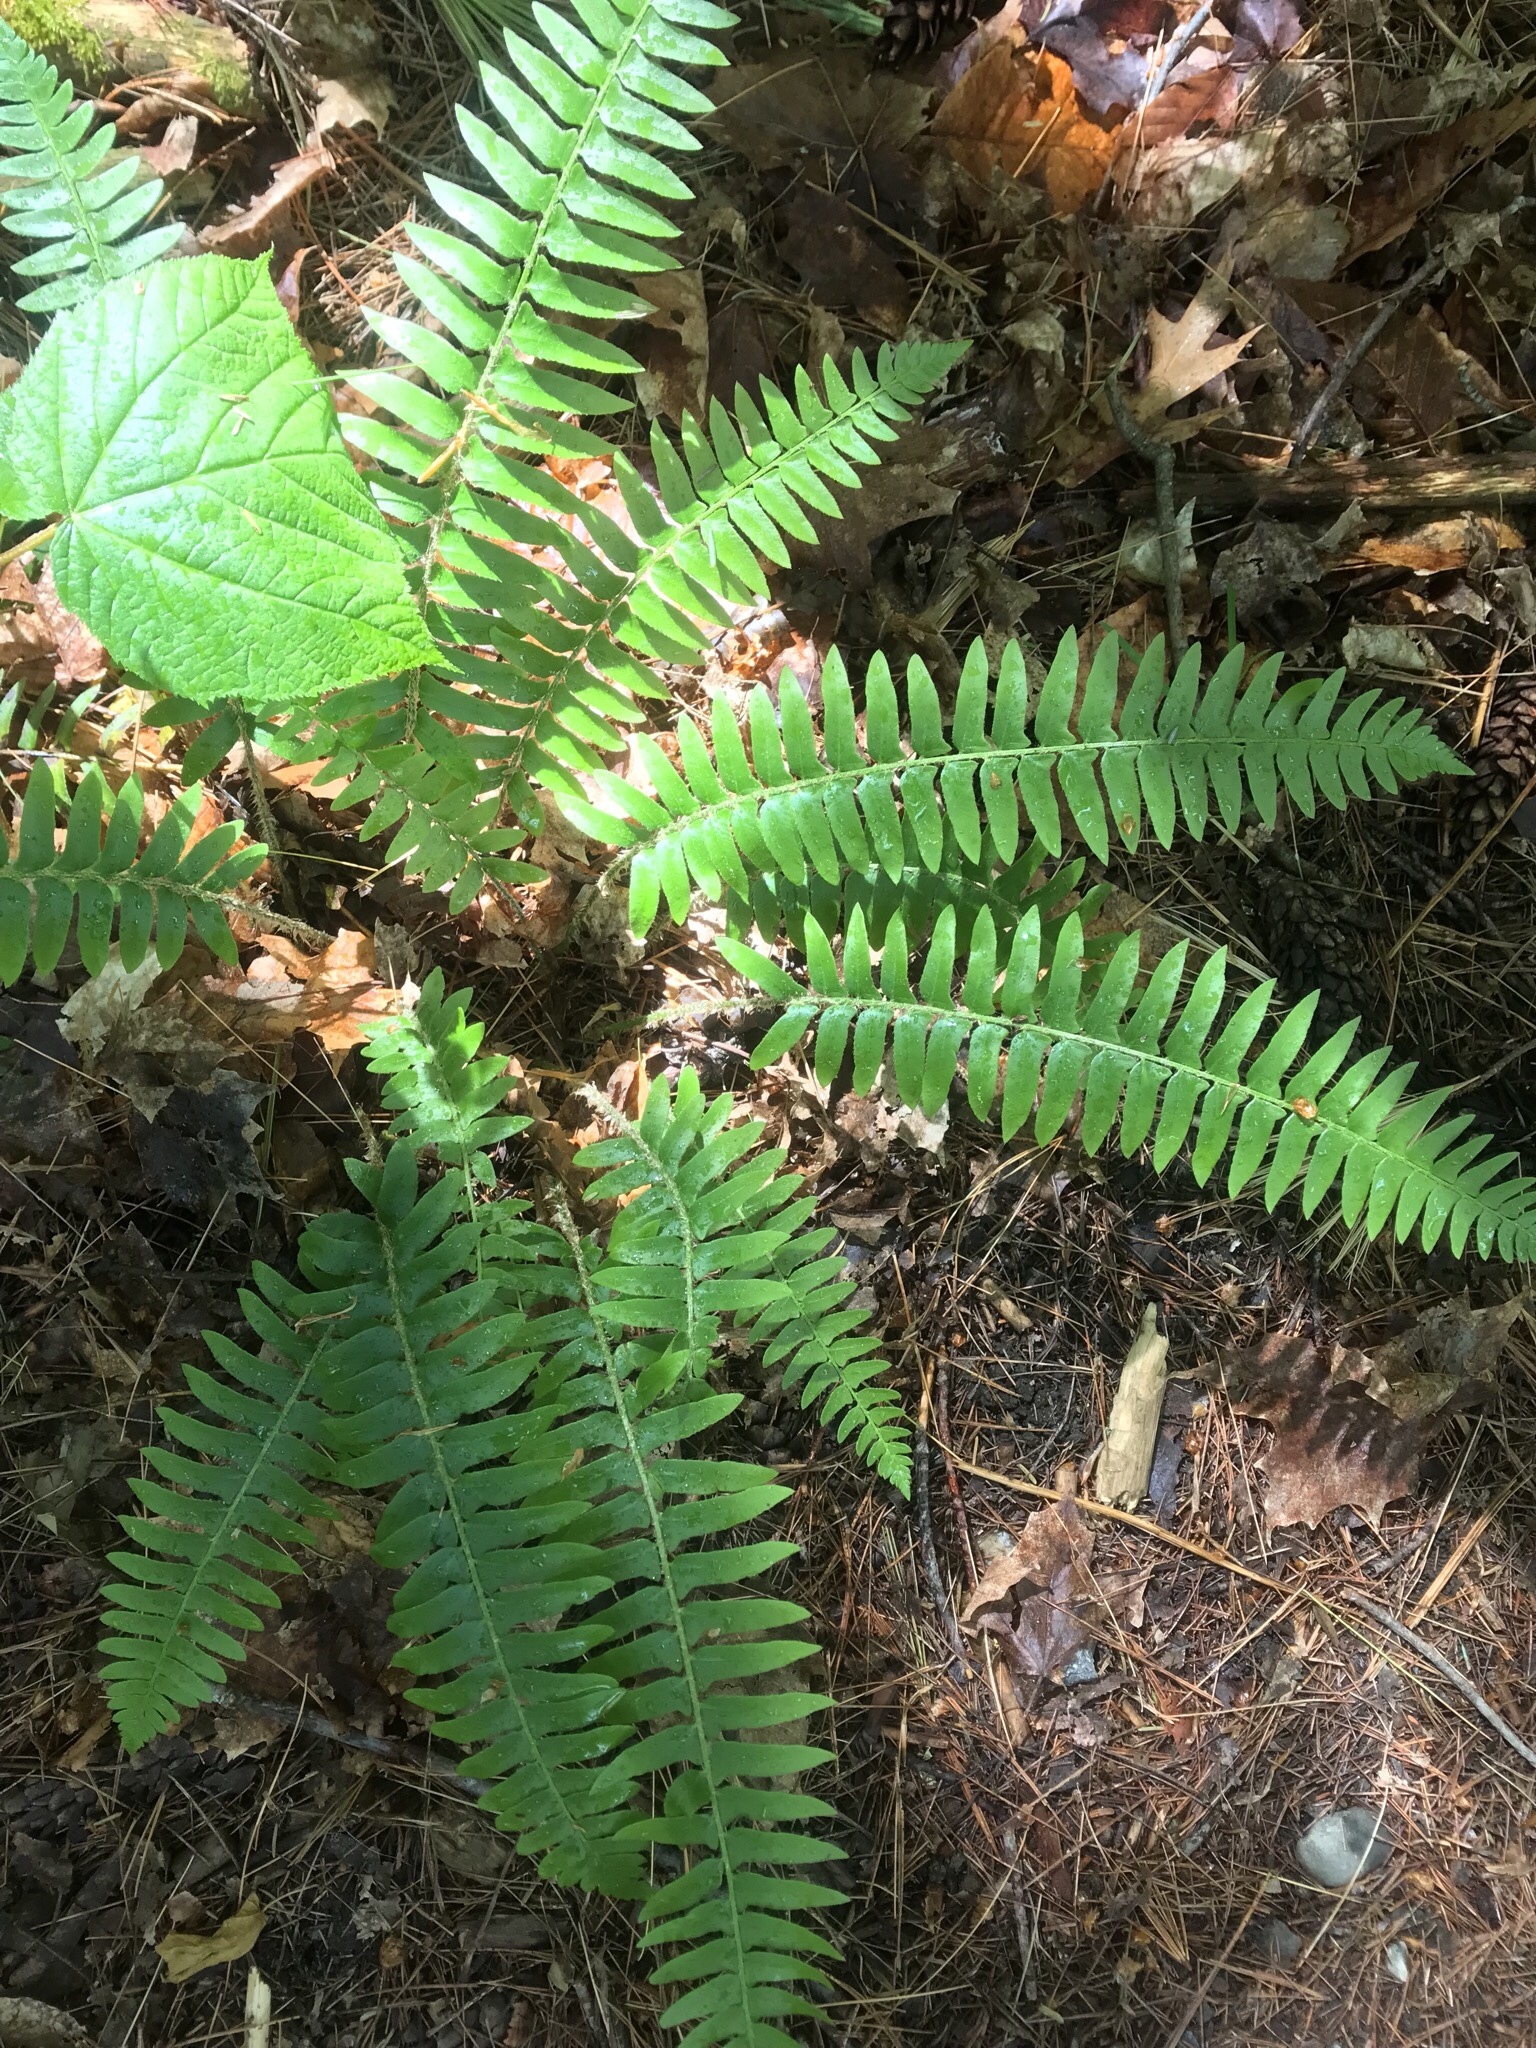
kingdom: Plantae
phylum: Tracheophyta
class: Polypodiopsida
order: Polypodiales
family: Dryopteridaceae
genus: Polystichum
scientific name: Polystichum acrostichoides
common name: Christmas fern
